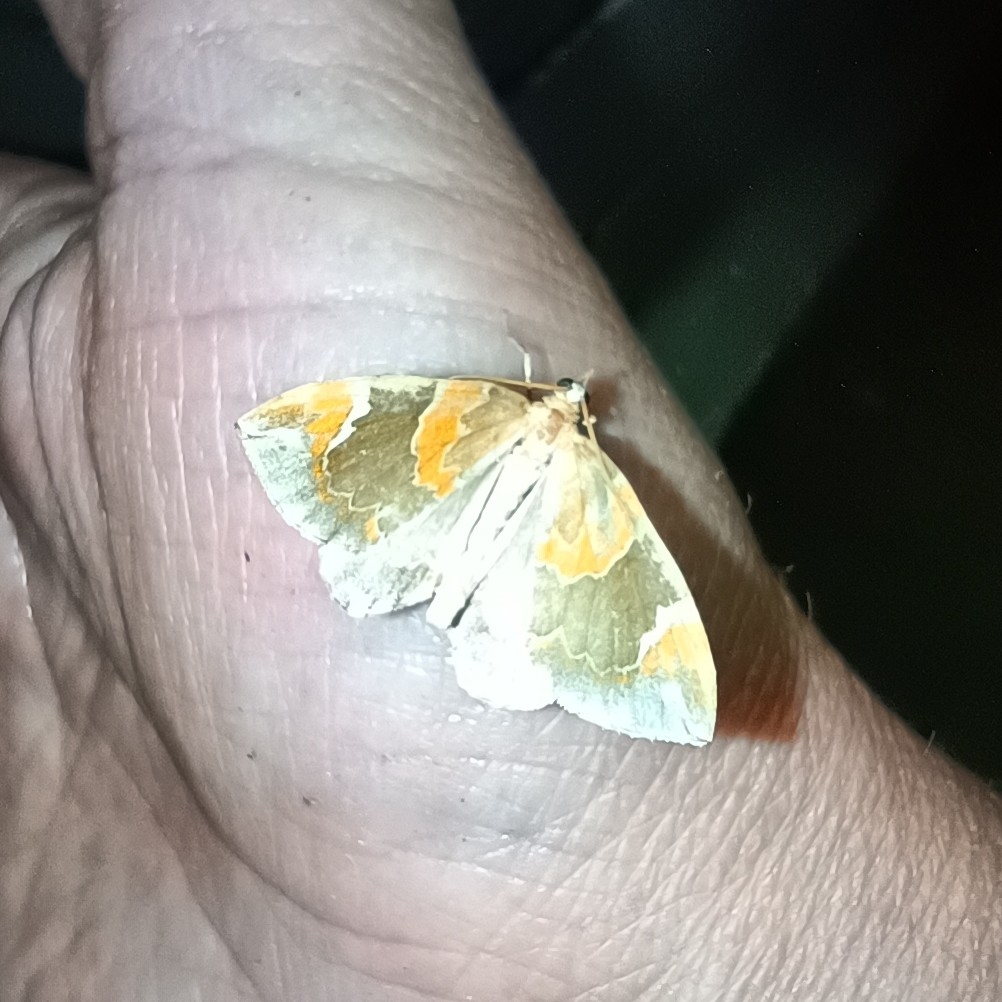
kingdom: Animalia
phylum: Arthropoda
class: Insecta
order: Lepidoptera
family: Geometridae
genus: Eulithis
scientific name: Eulithis pyropata
